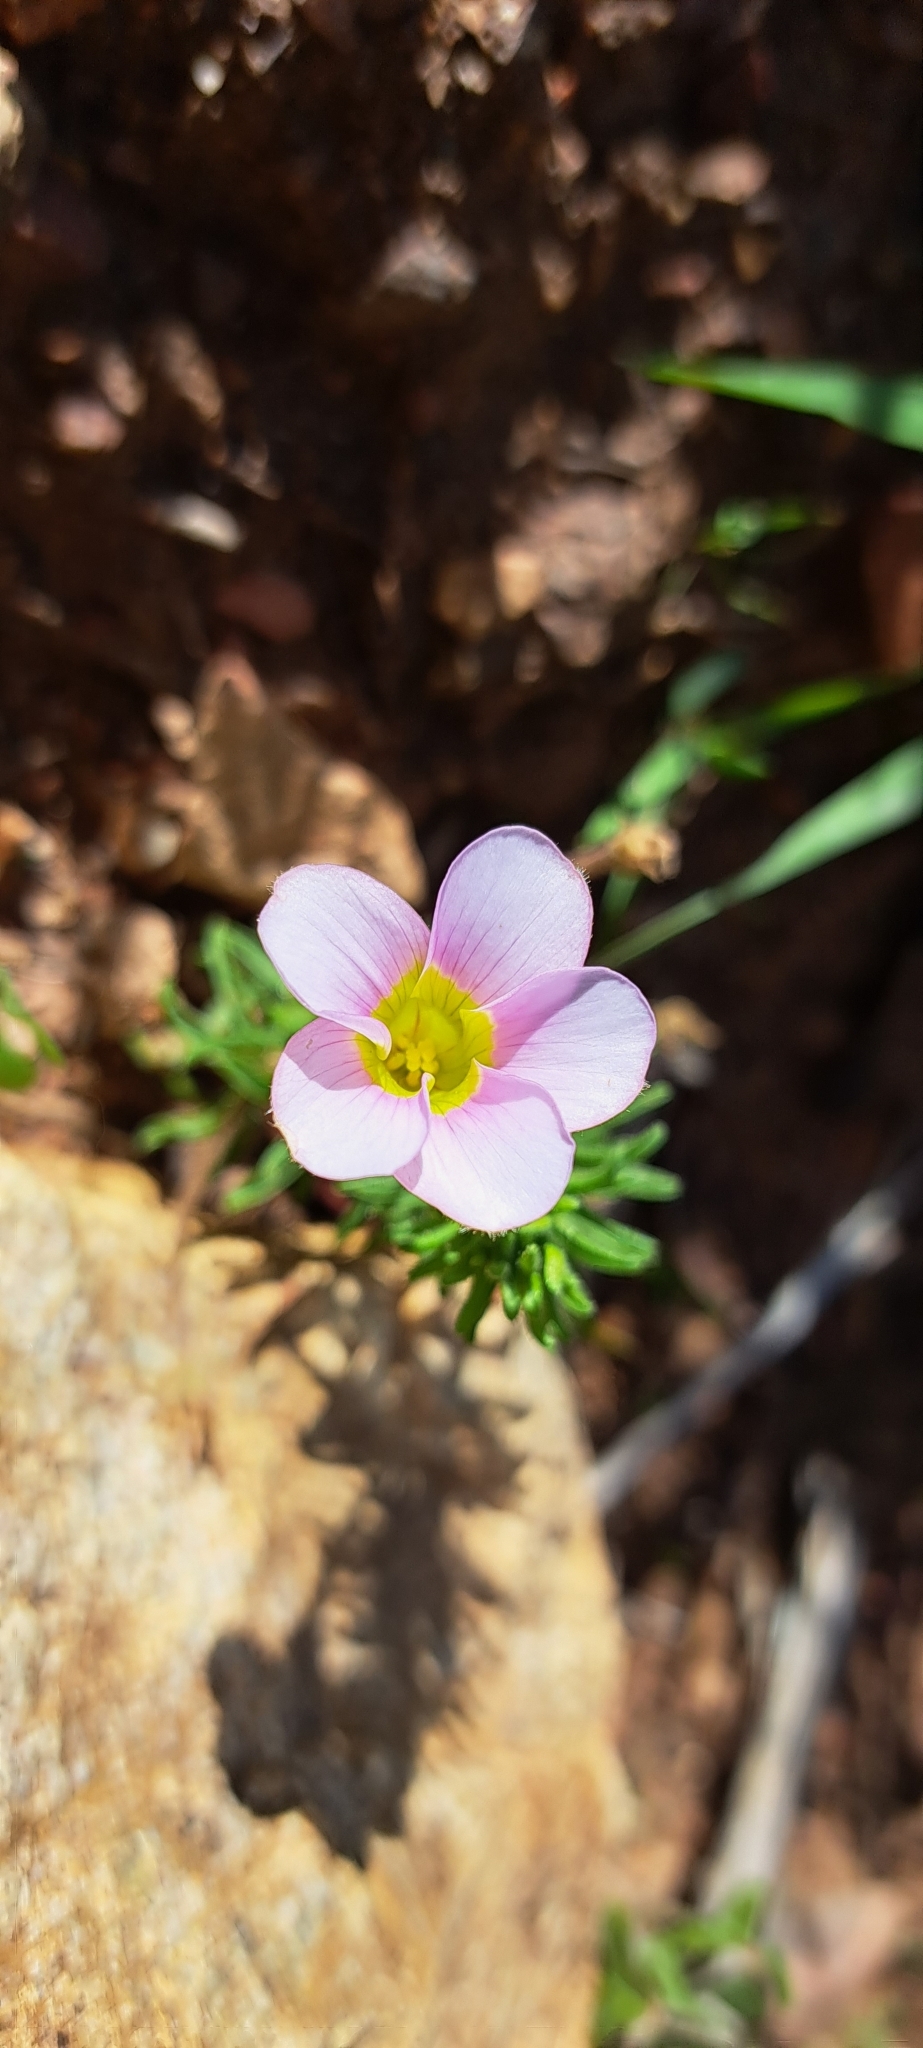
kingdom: Plantae
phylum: Tracheophyta
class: Magnoliopsida
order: Oxalidales
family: Oxalidaceae
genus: Oxalis
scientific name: Oxalis
